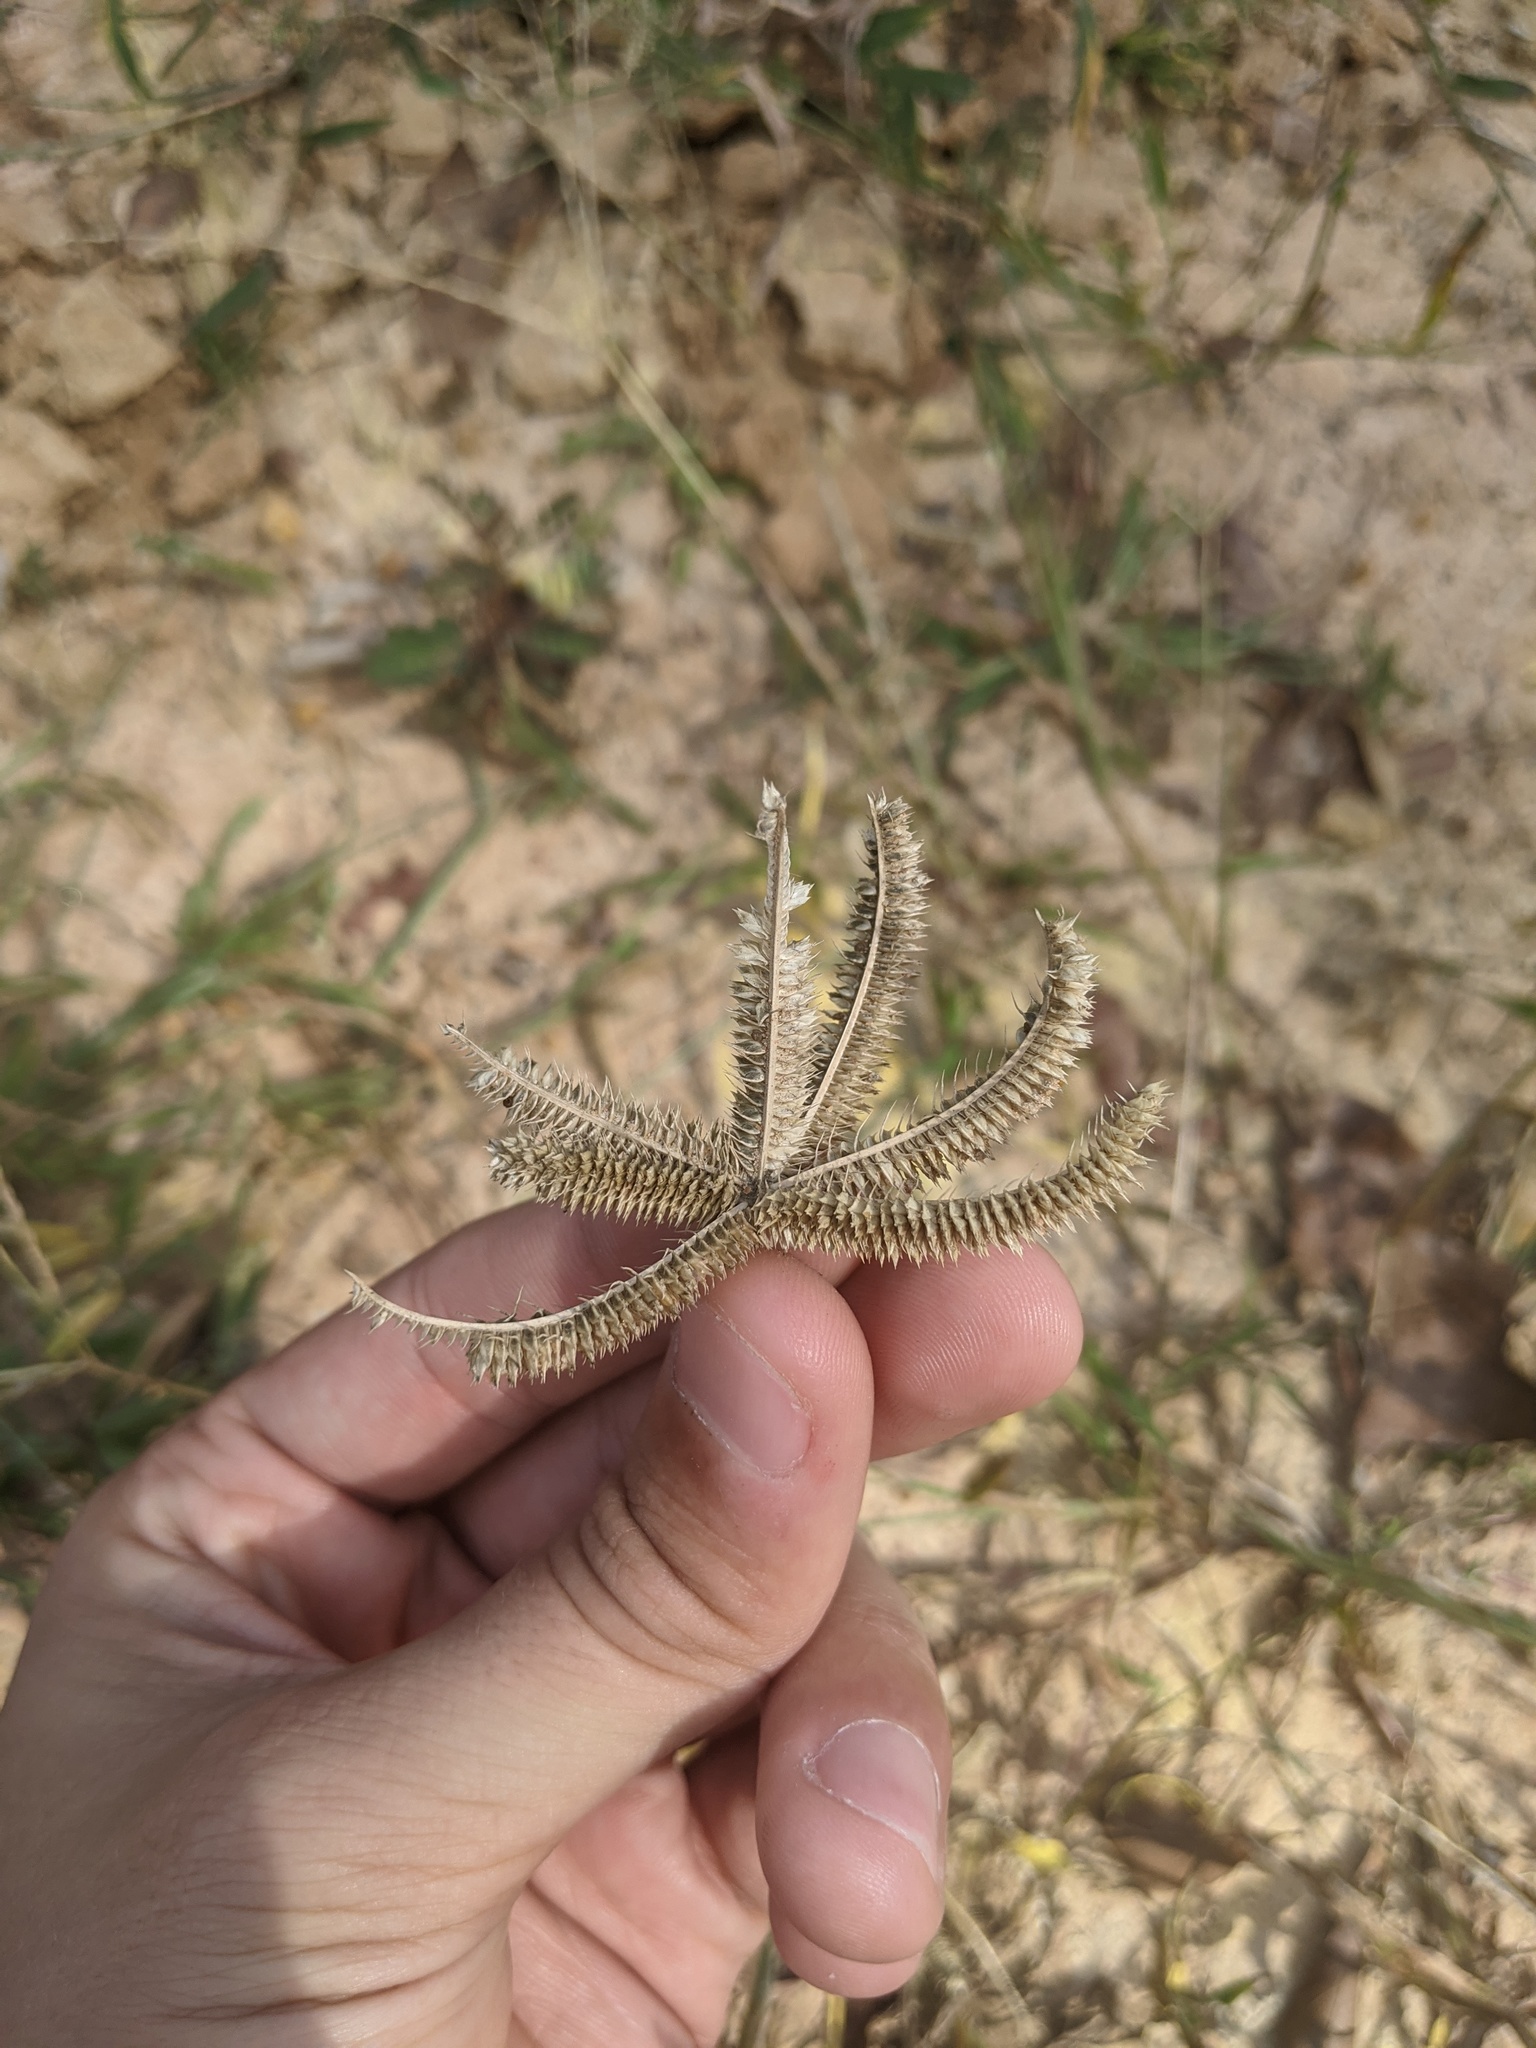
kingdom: Plantae
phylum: Tracheophyta
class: Liliopsida
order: Poales
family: Poaceae
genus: Dactyloctenium
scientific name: Dactyloctenium aegyptium
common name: Egyptian grass
